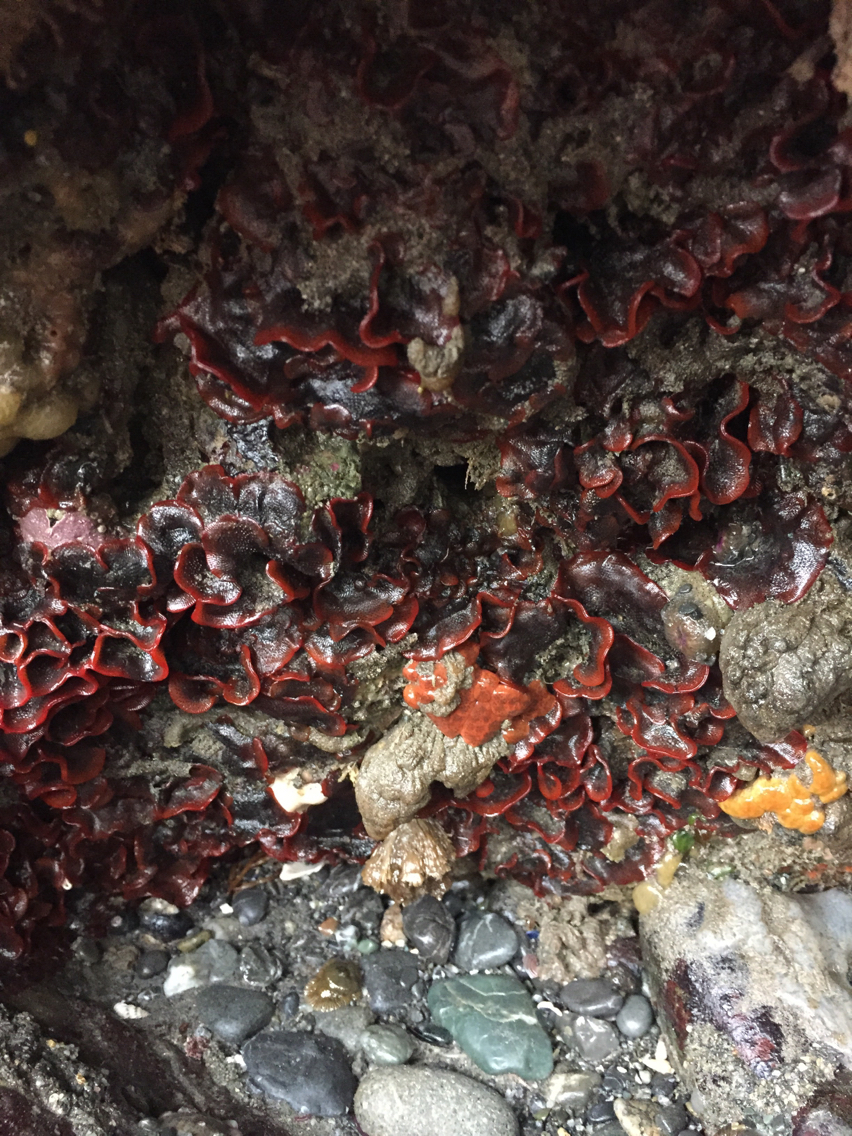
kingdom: Animalia
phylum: Bryozoa
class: Gymnolaemata
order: Cheilostomatida
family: Watersiporidae
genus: Watersipora
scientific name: Watersipora subtorquata
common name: Bryozoan
